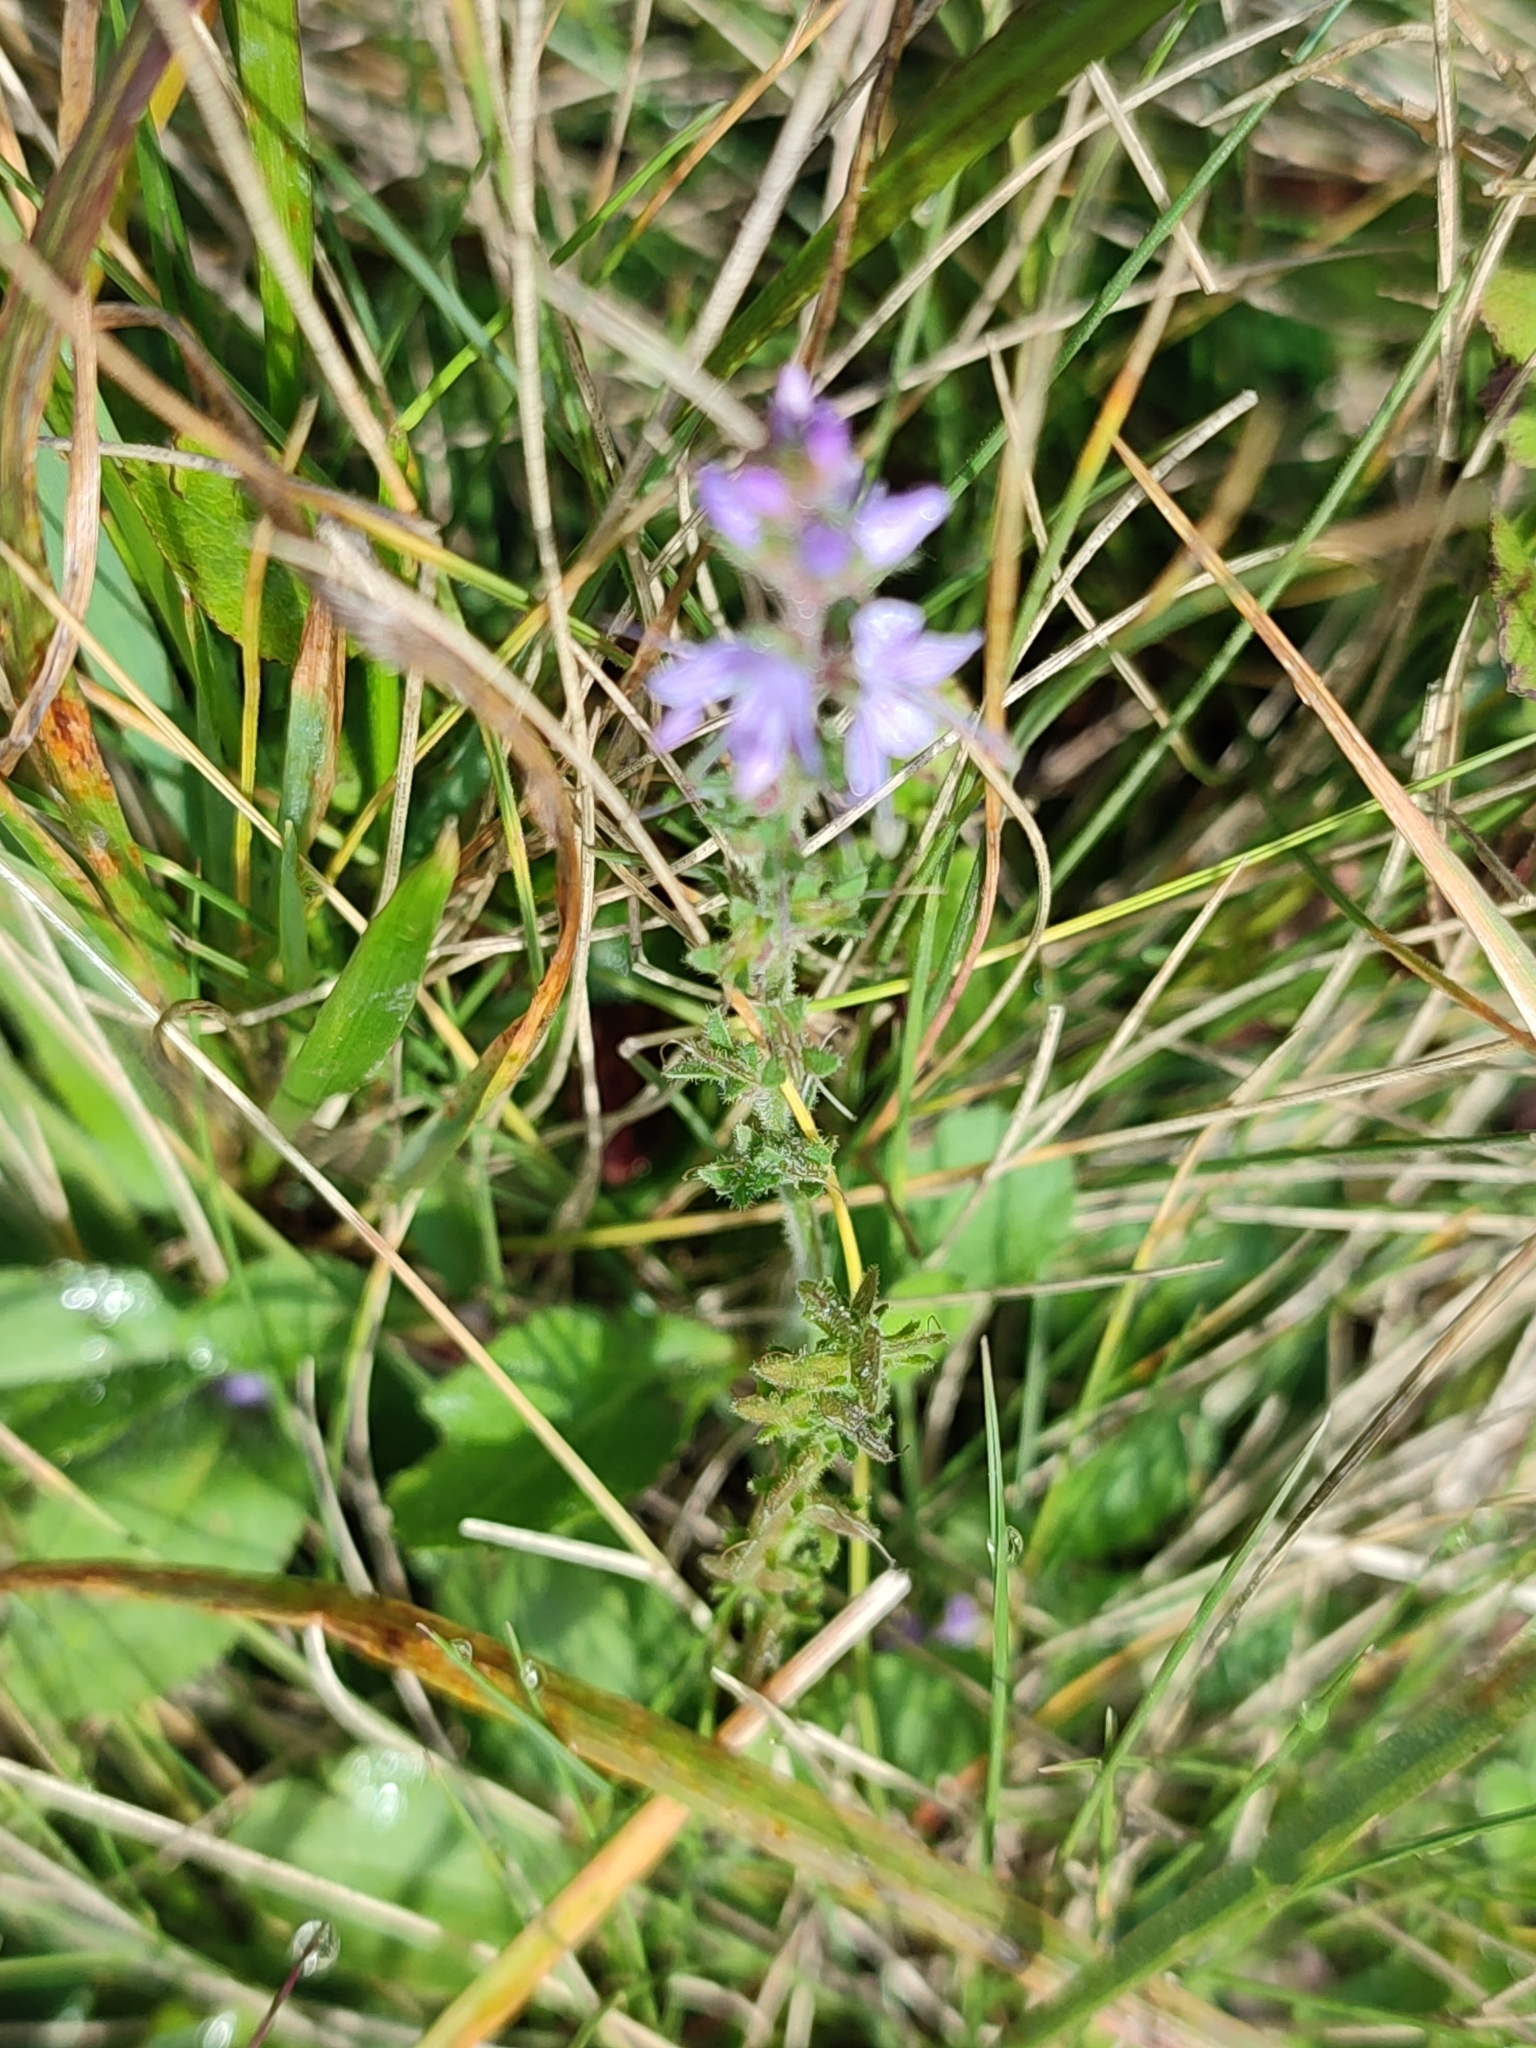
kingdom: Plantae
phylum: Tracheophyta
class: Magnoliopsida
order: Lamiales
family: Plantaginaceae
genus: Veronica
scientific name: Veronica officinalis
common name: Common speedwell
